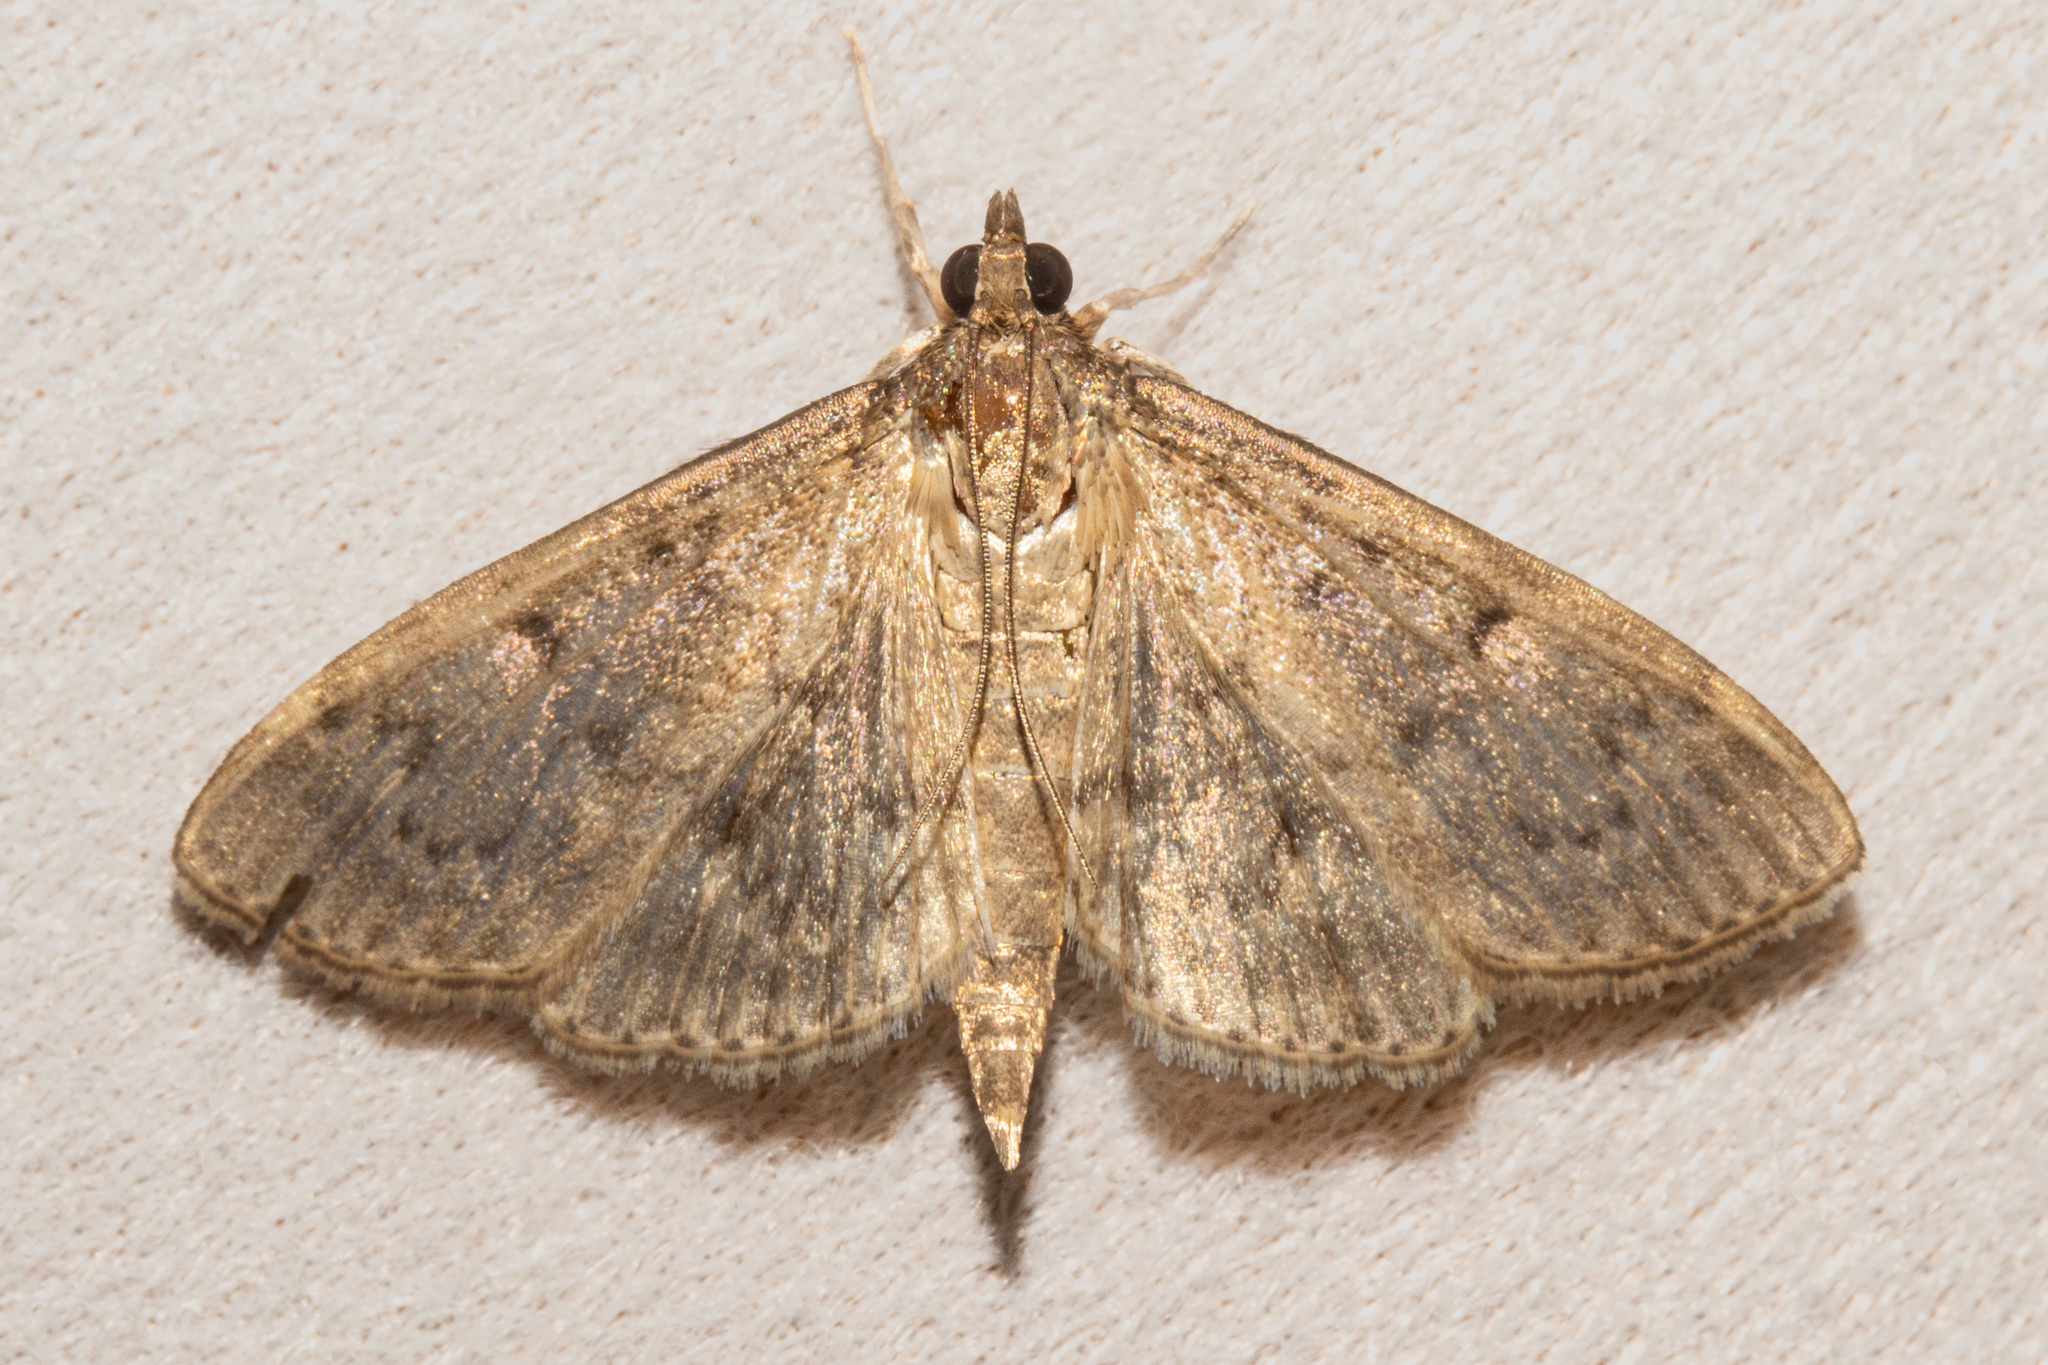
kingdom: Animalia
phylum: Arthropoda
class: Insecta
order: Lepidoptera
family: Crambidae
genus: Herpetogramma
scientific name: Herpetogramma licarsisalis
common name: Grass webworm
